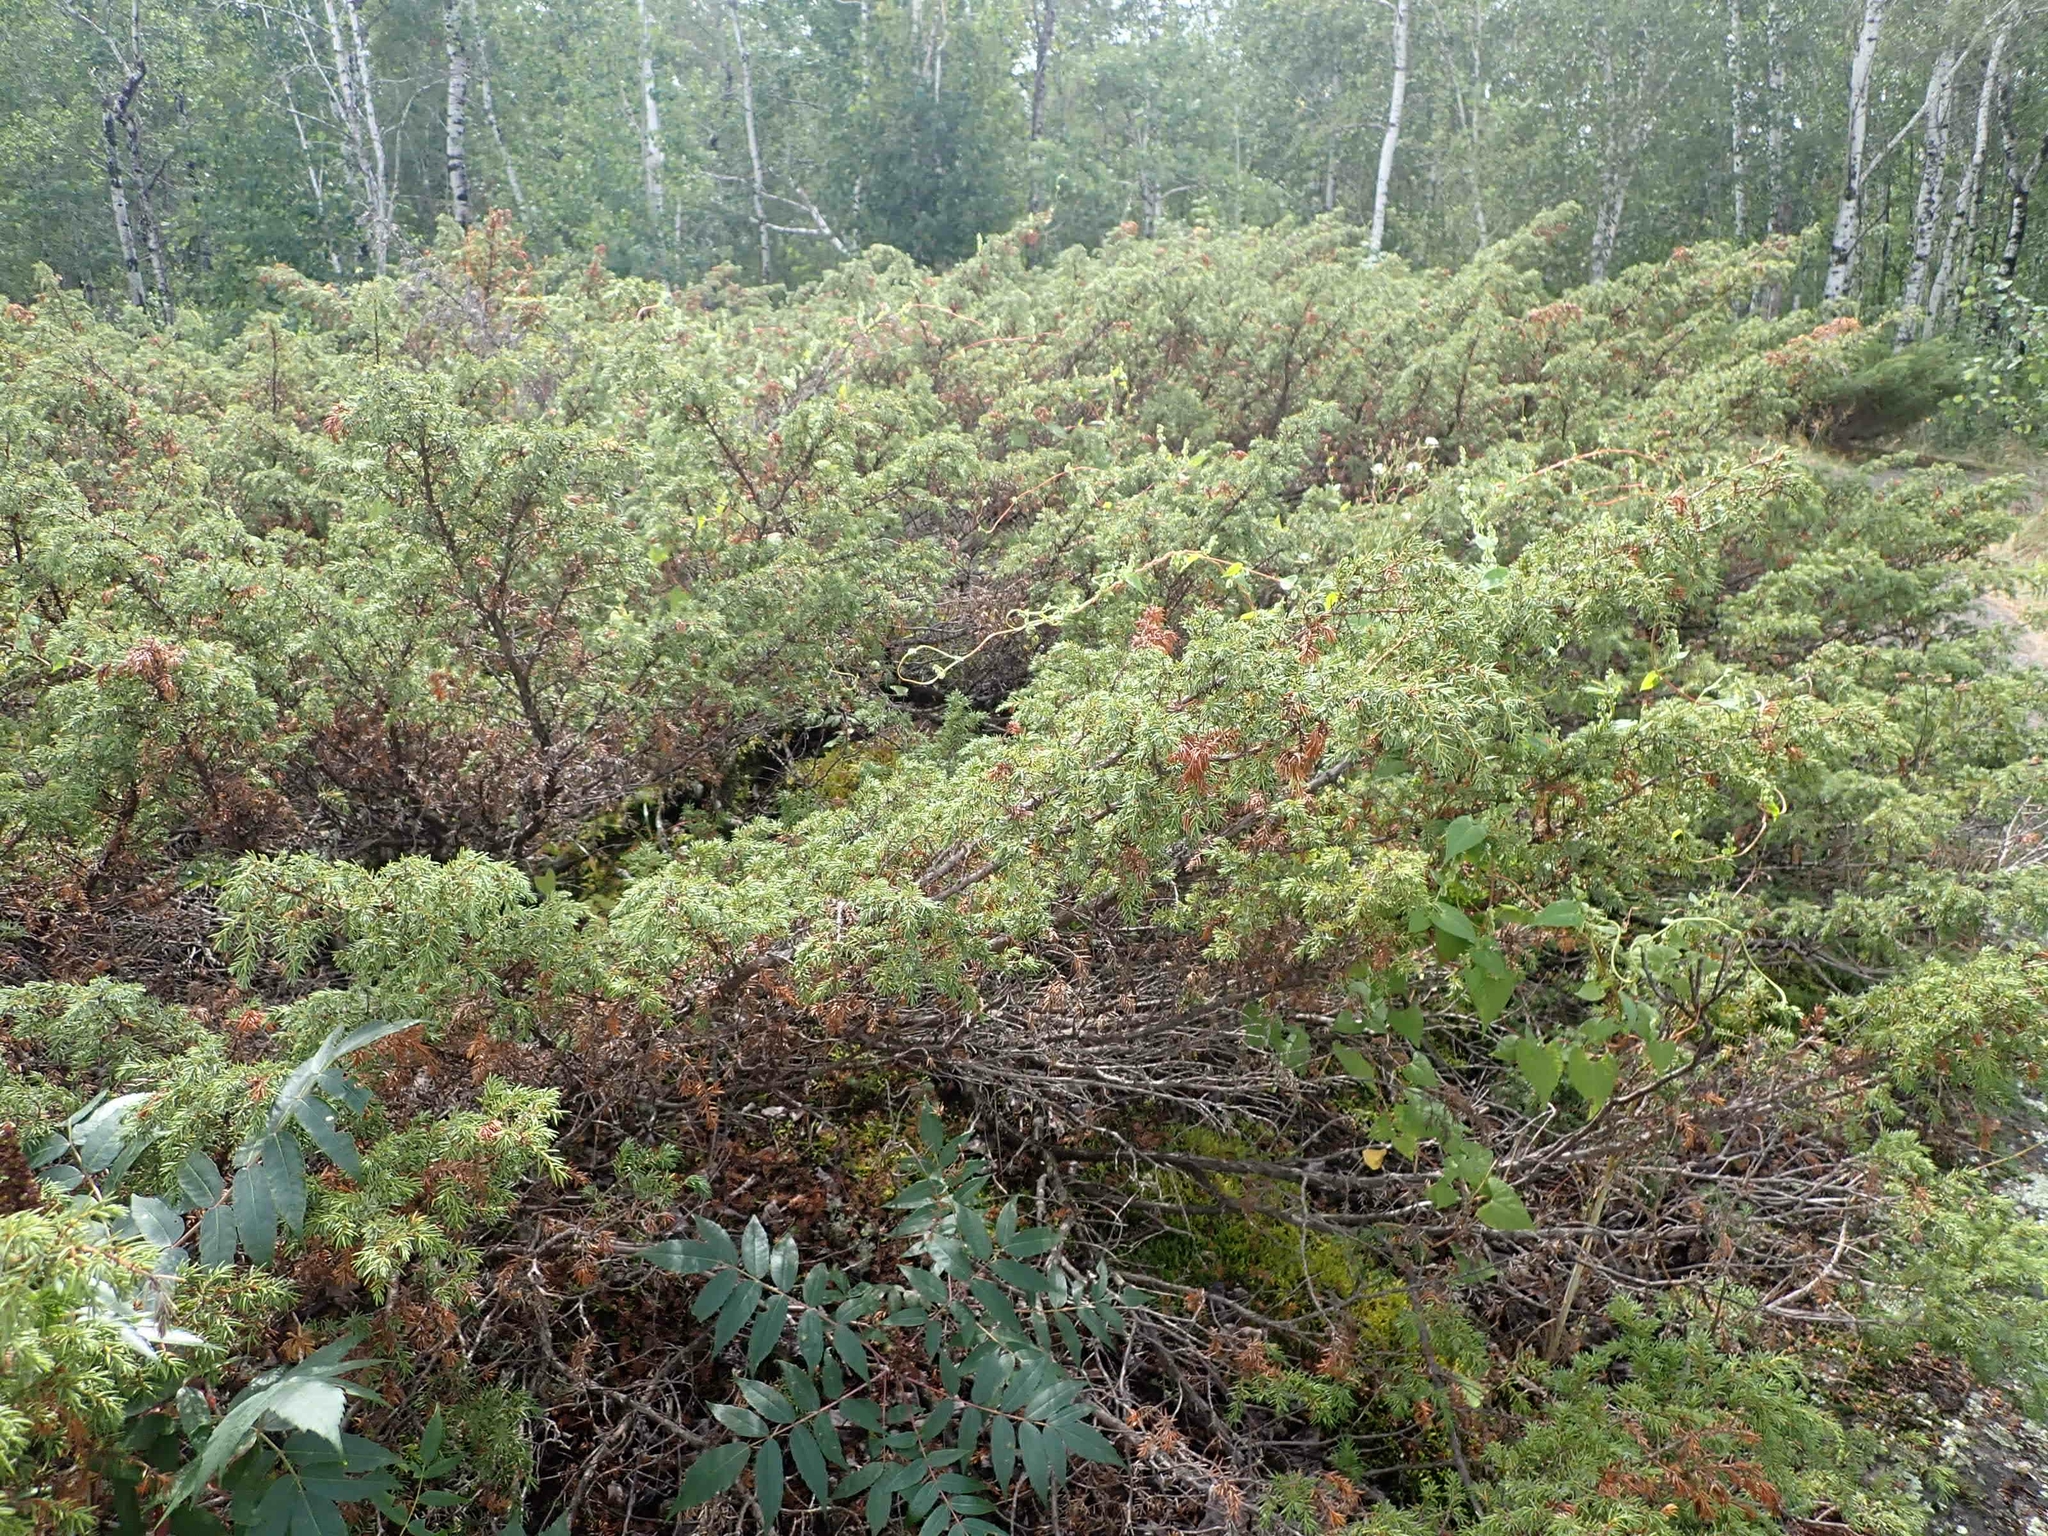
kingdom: Plantae
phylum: Tracheophyta
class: Pinopsida
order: Pinales
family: Cupressaceae
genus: Juniperus
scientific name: Juniperus communis
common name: Common juniper
